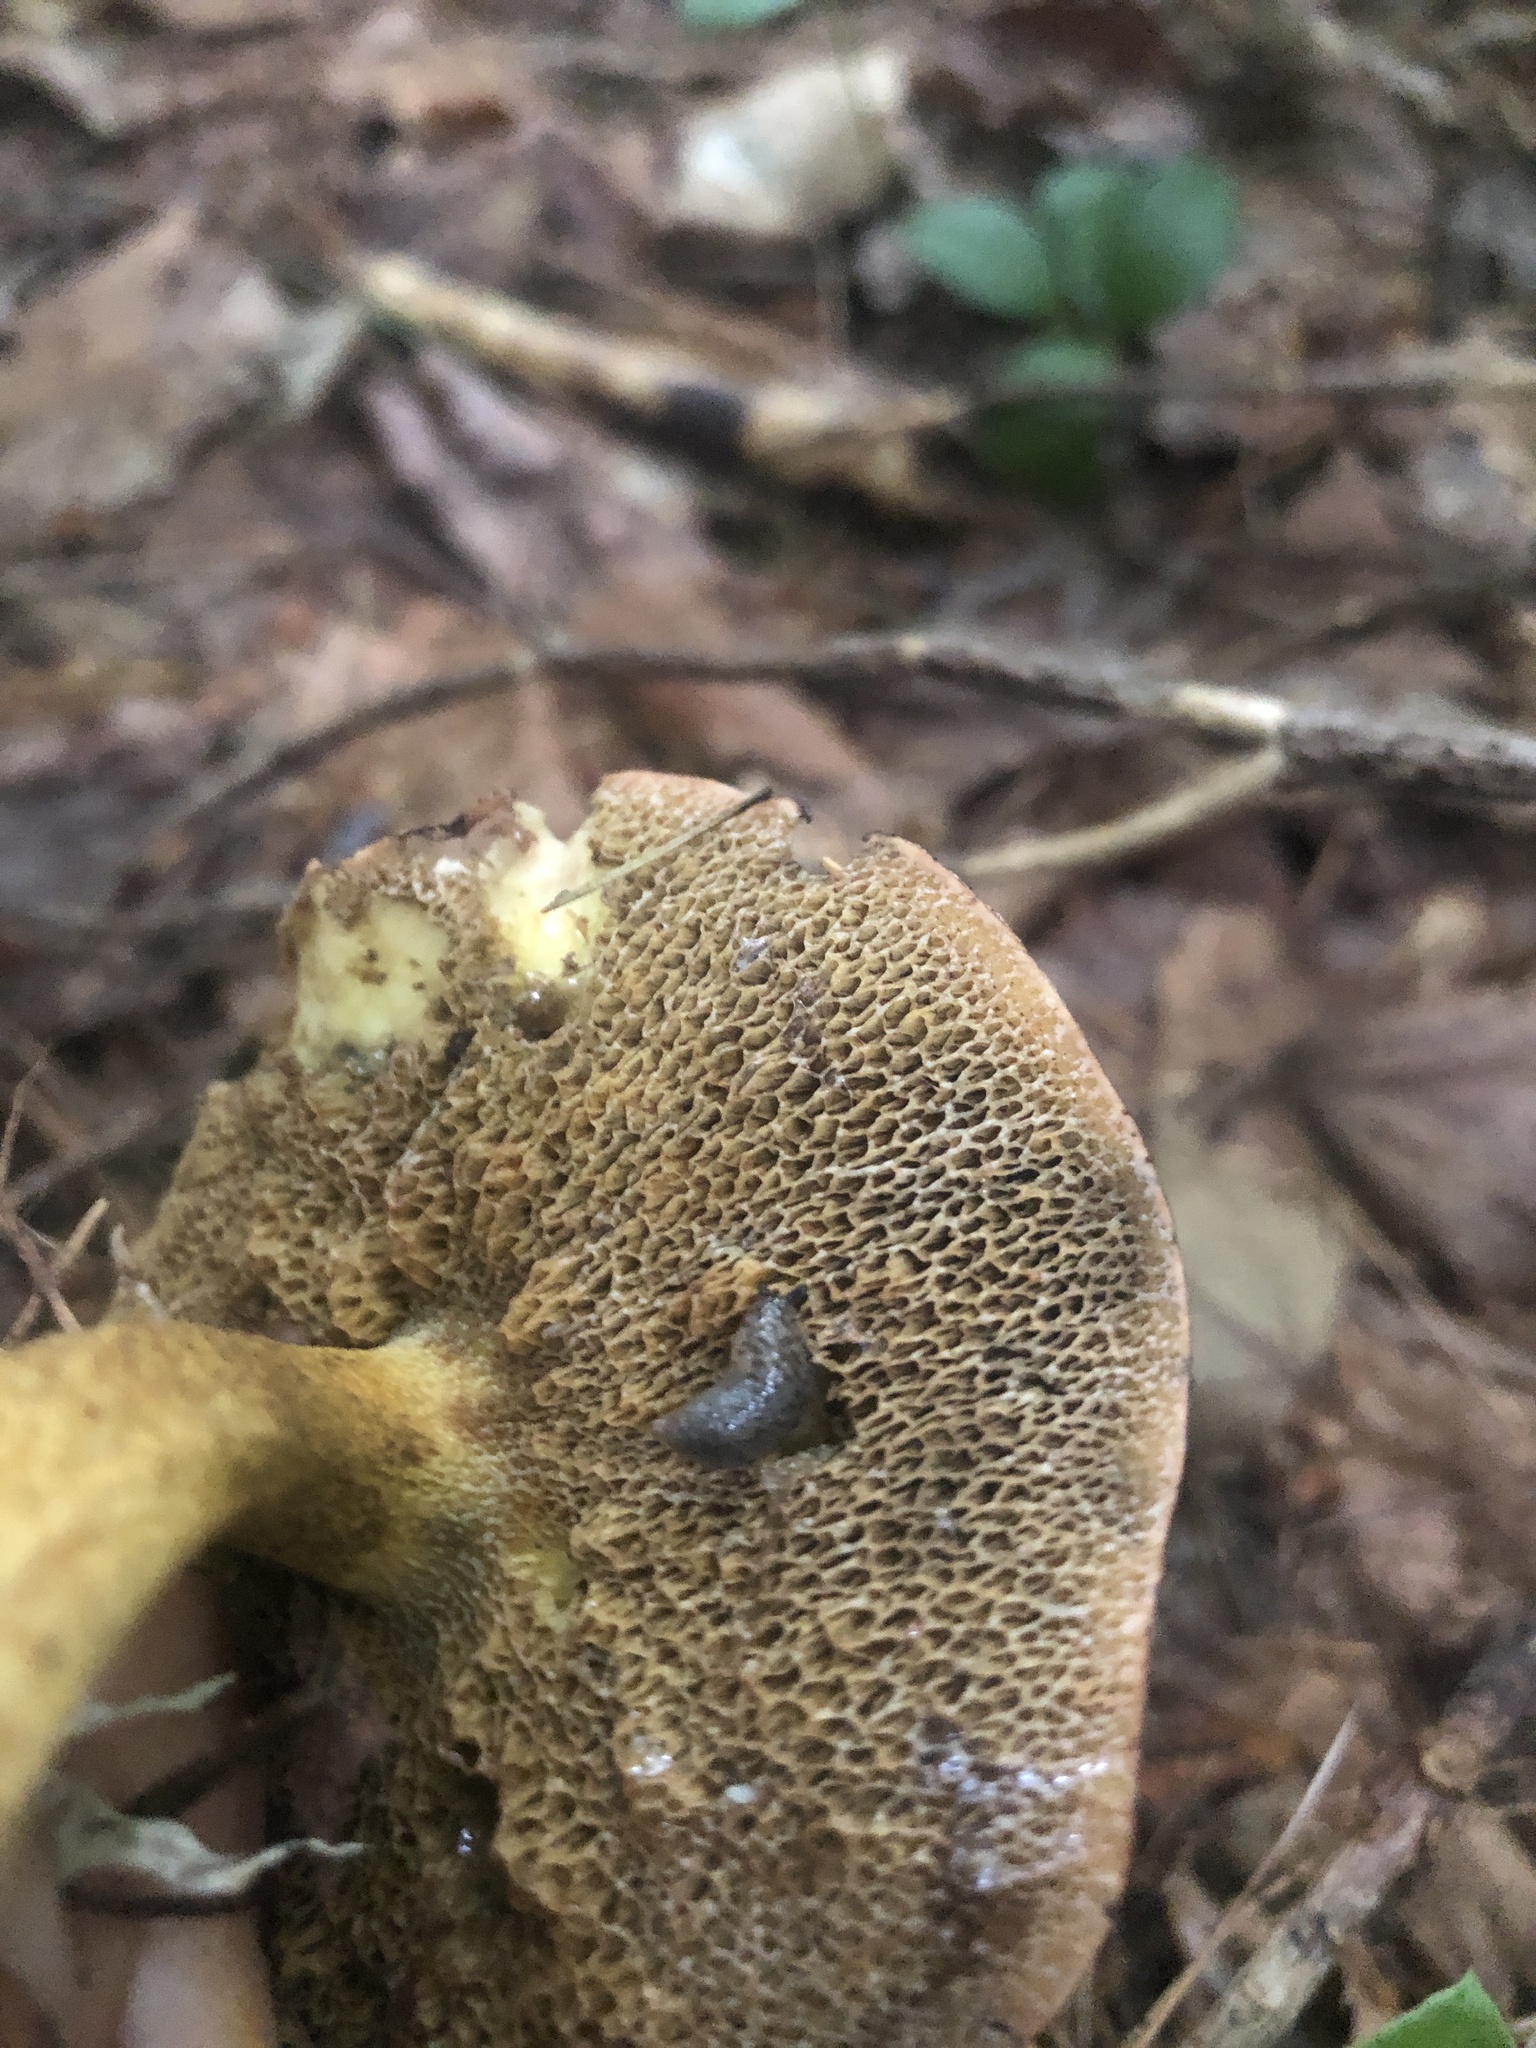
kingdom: Fungi
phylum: Basidiomycota
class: Agaricomycetes
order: Boletales
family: Suillaceae
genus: Suillus
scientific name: Suillus americanus
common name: Chicken fat mushroom
